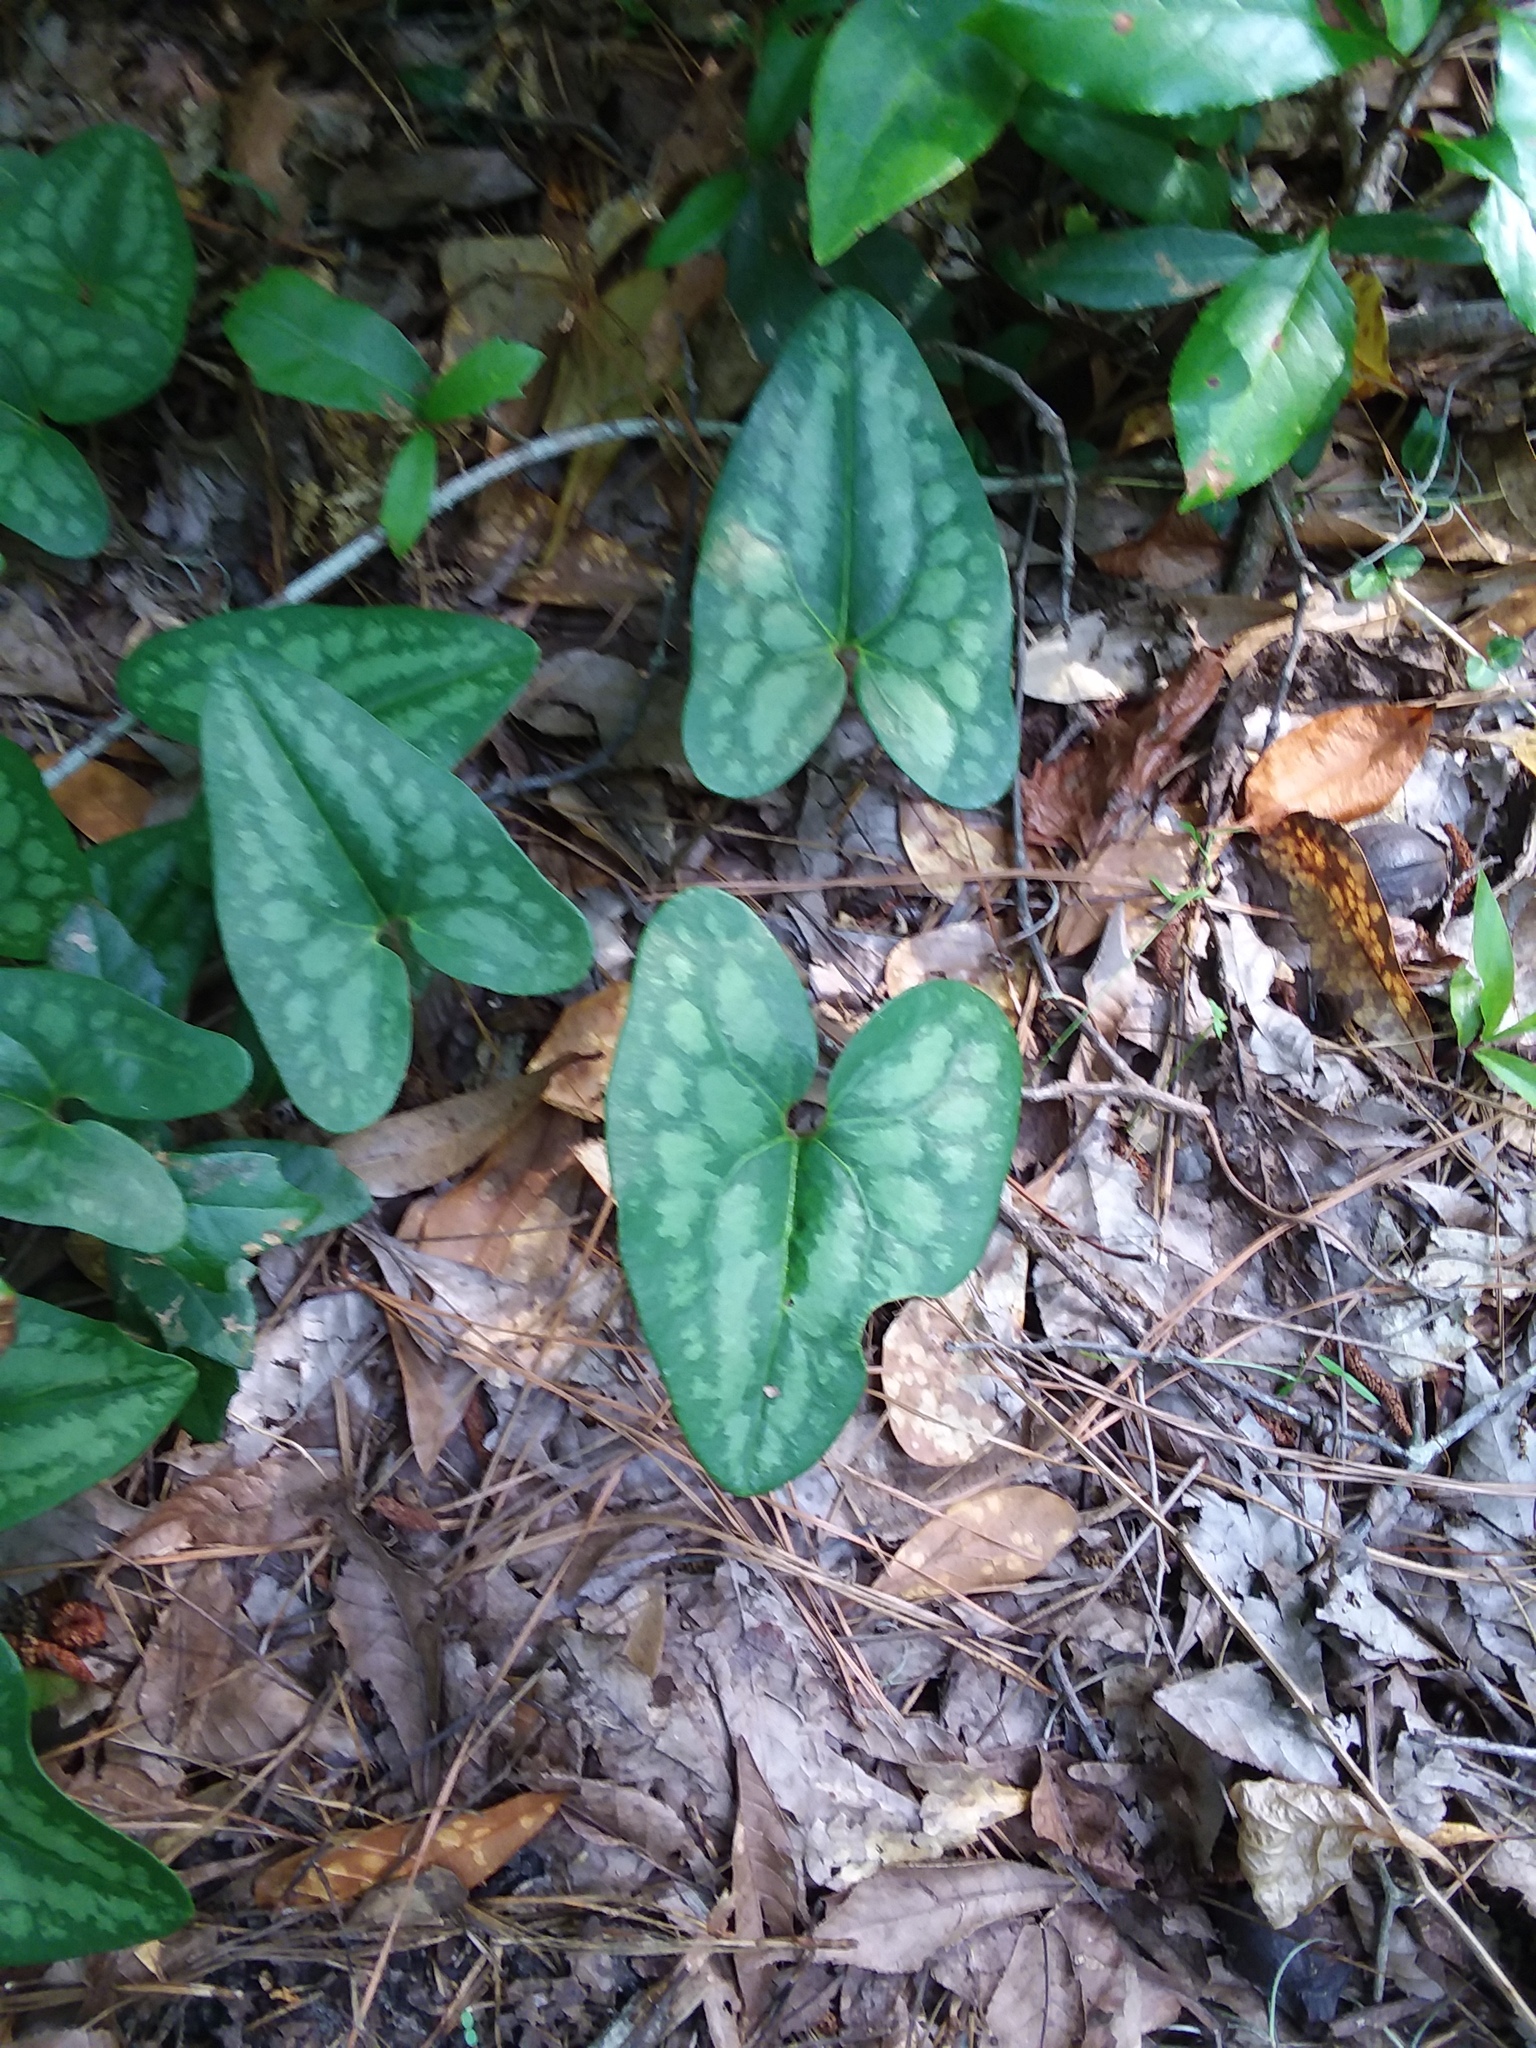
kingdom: Plantae
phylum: Tracheophyta
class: Magnoliopsida
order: Piperales
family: Aristolochiaceae
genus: Hexastylis
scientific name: Hexastylis arifolia
